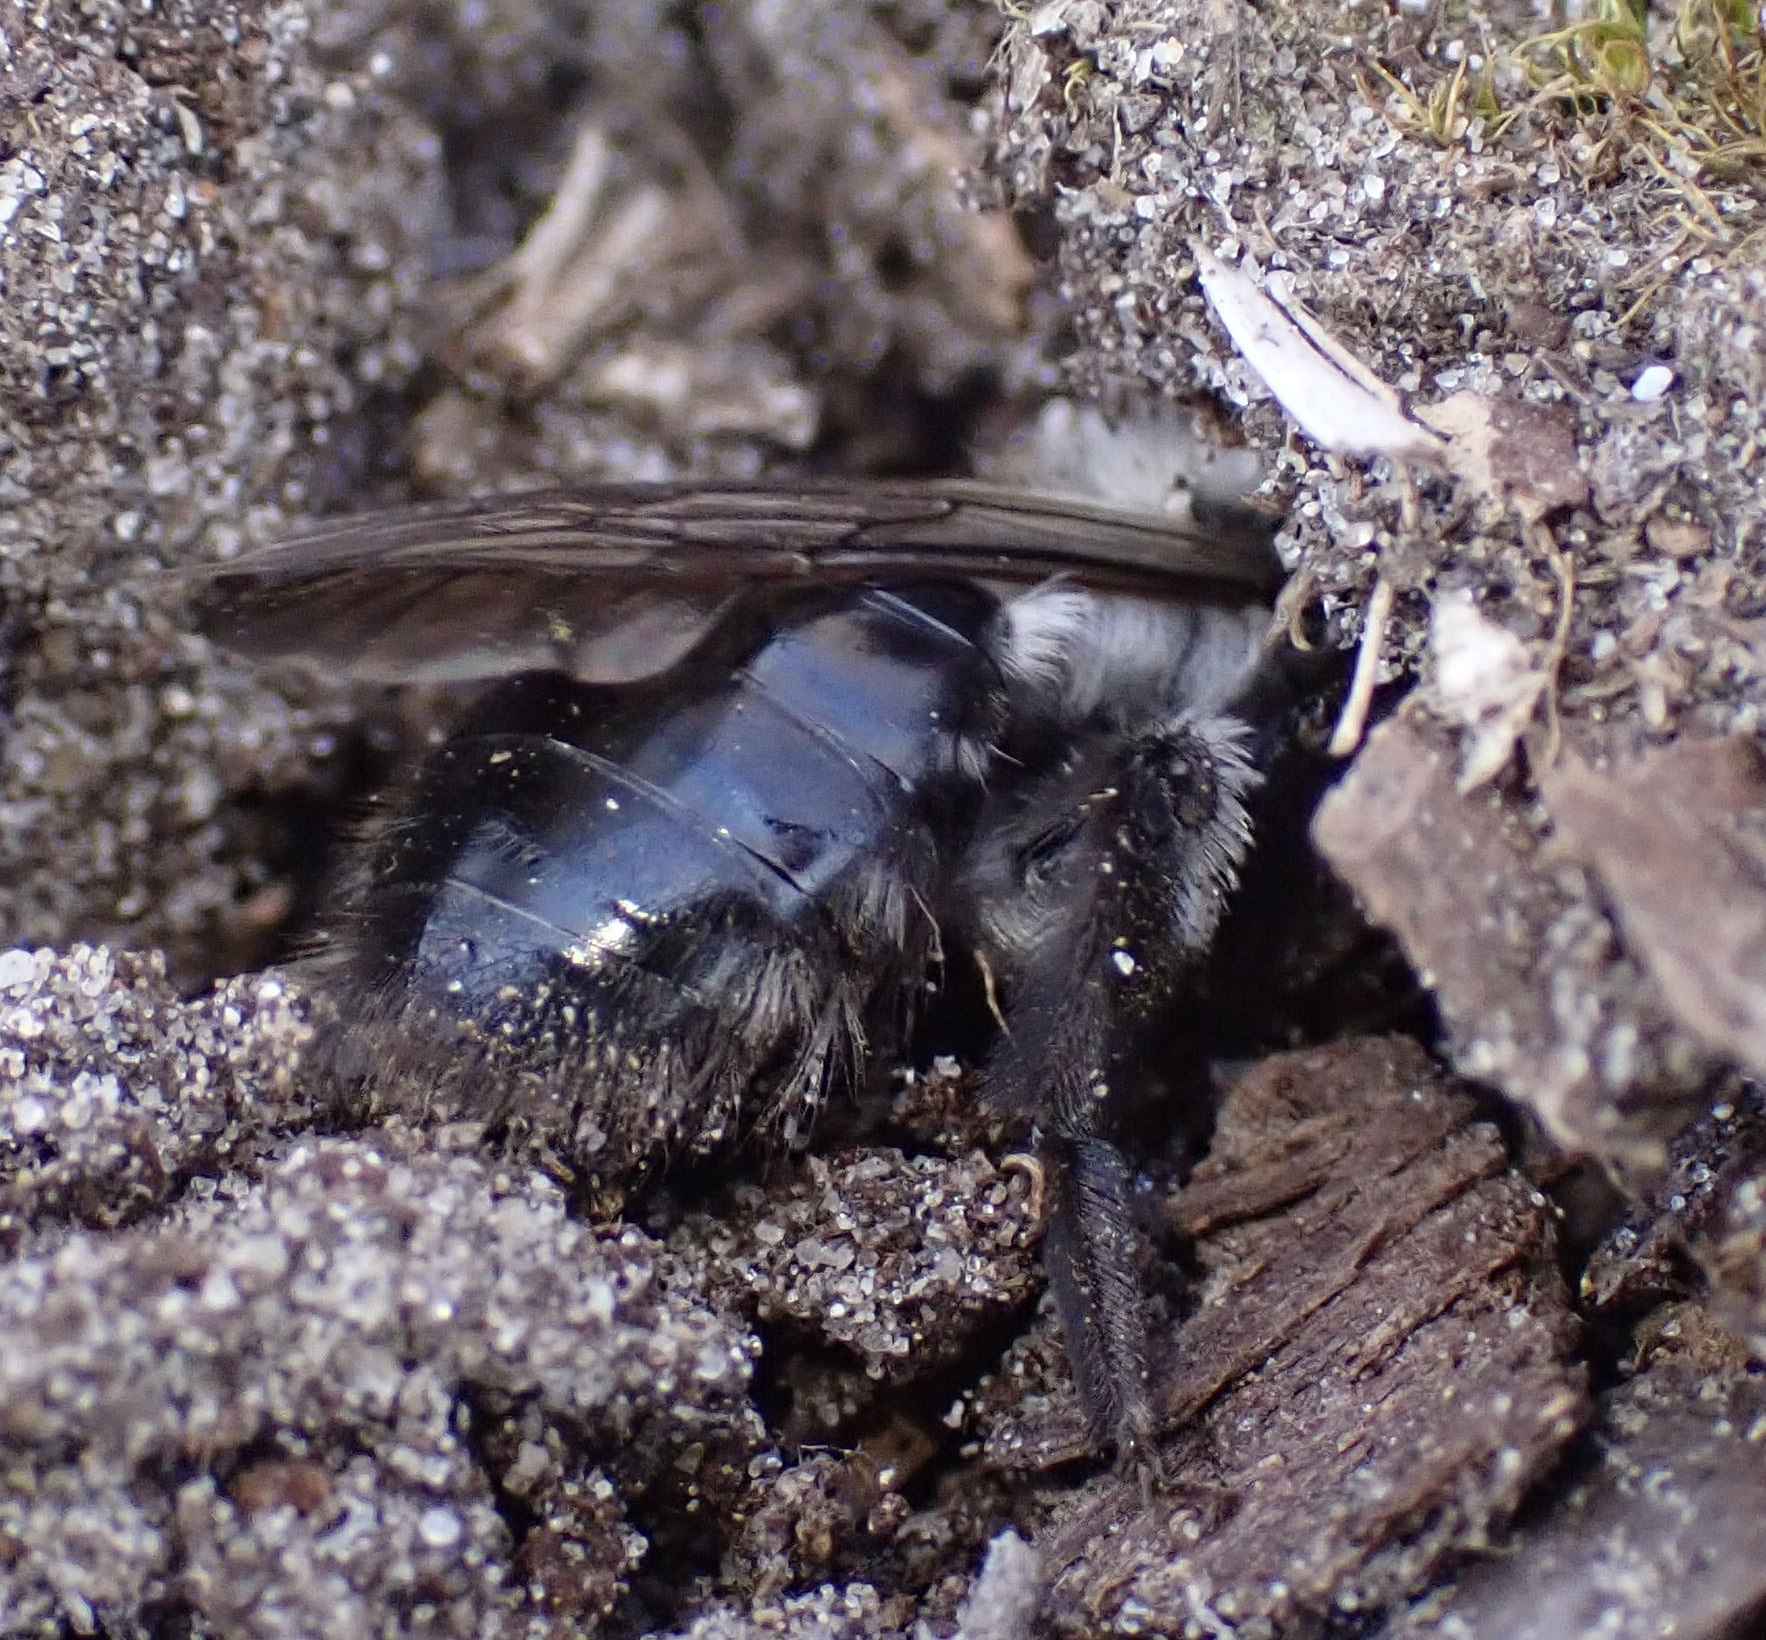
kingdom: Animalia
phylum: Arthropoda
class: Insecta
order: Hymenoptera
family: Andrenidae
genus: Andrena
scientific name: Andrena vaga
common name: Grey-backed mining bee
